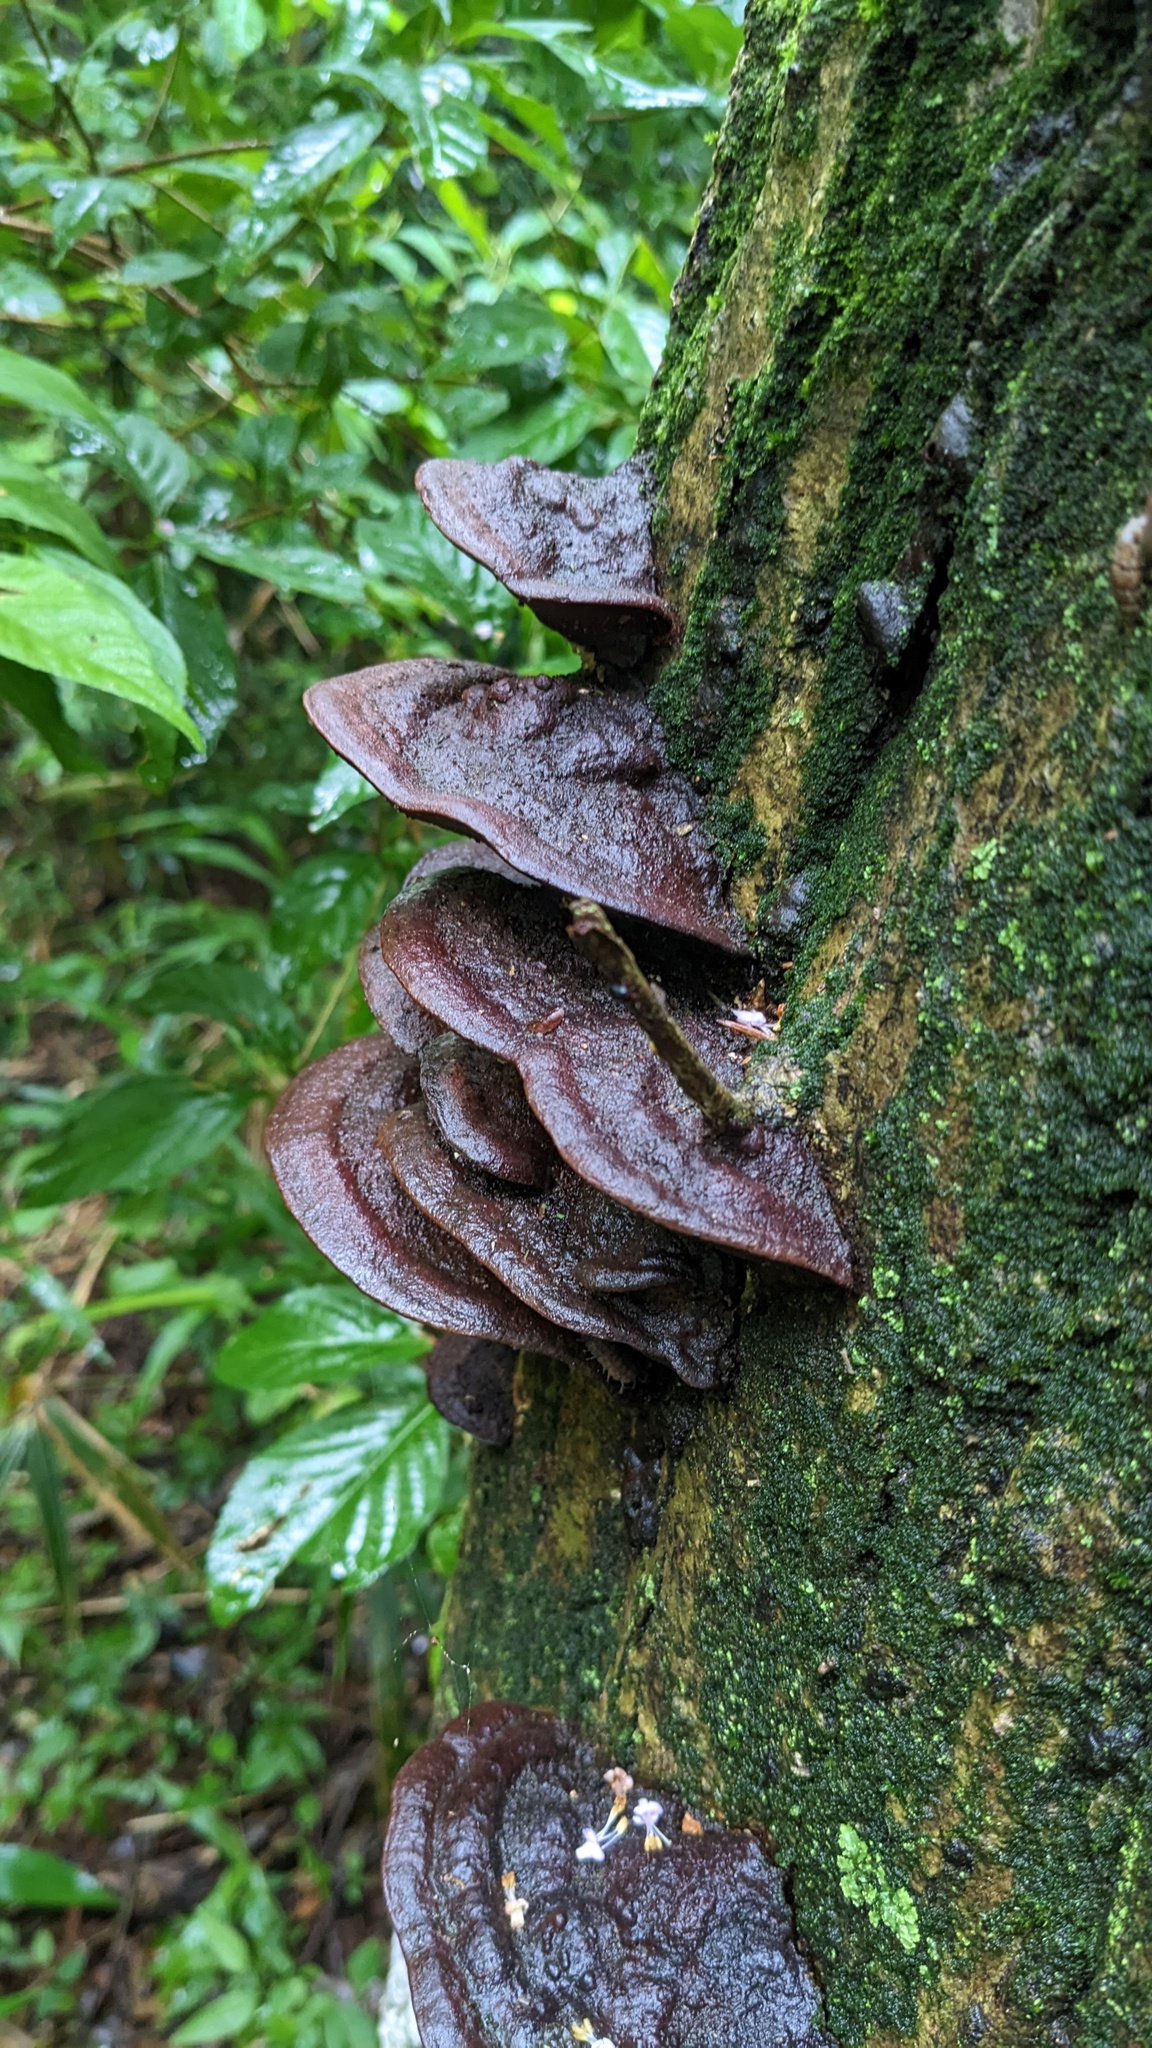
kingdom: Fungi
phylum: Basidiomycota
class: Agaricomycetes
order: Hymenochaetales
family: Hymenochaetaceae
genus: Phellinus
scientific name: Phellinus gilvus
